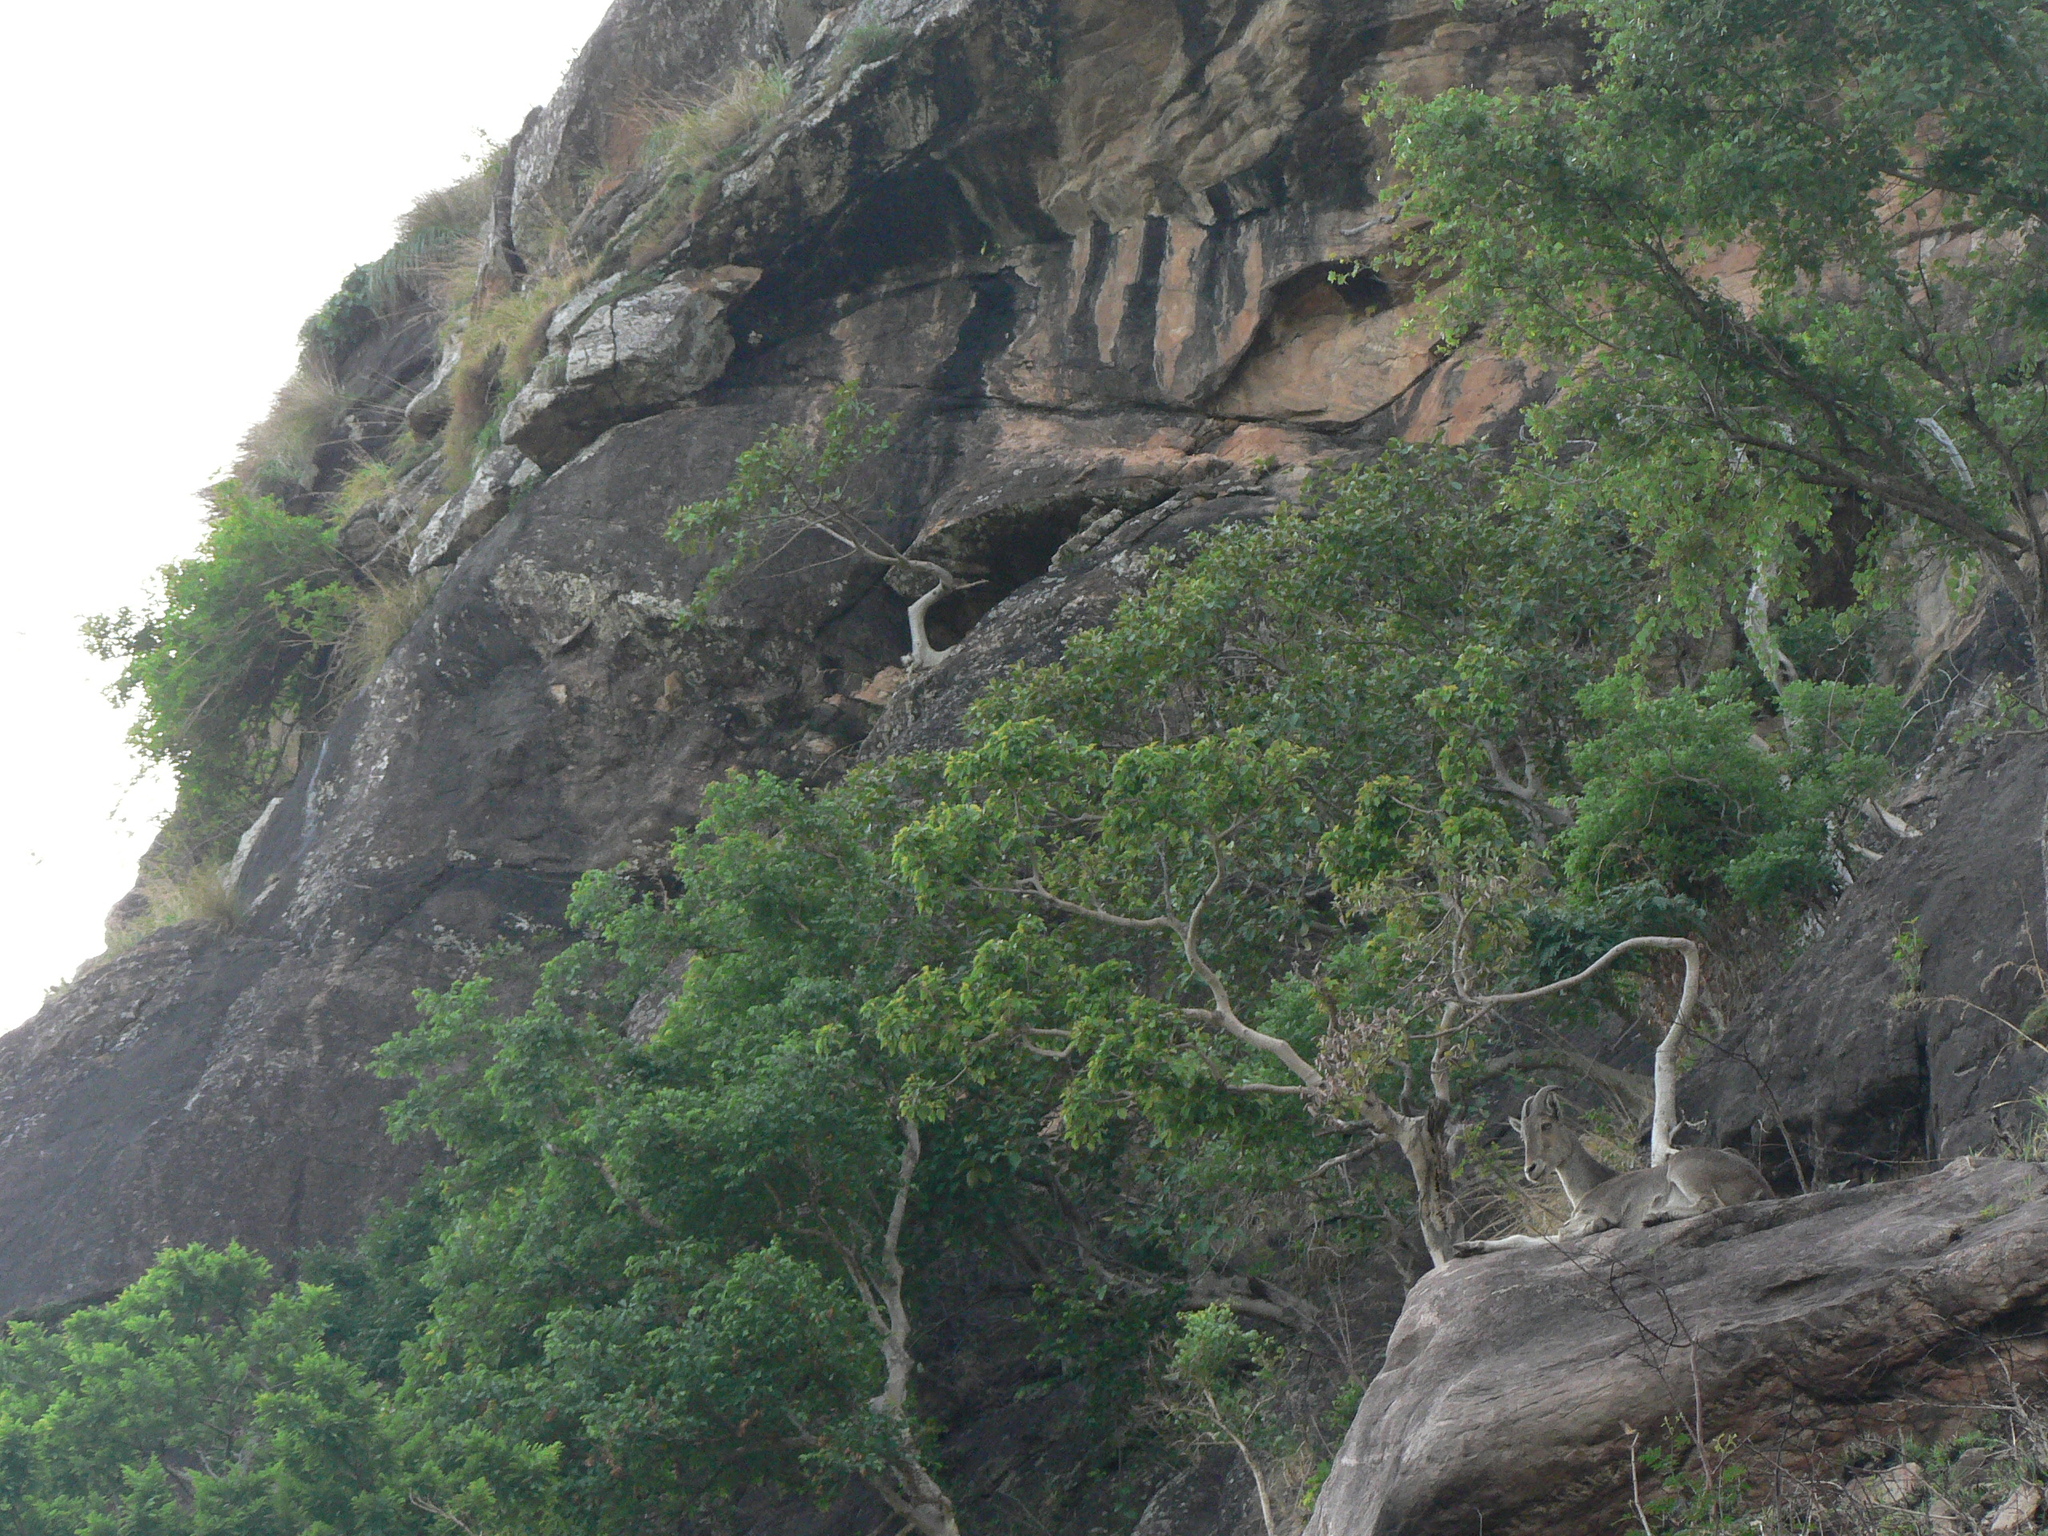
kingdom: Animalia
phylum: Chordata
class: Mammalia
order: Artiodactyla
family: Bovidae
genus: Hemitragus
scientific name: Hemitragus hylocrius
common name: Nilgiri tahr
